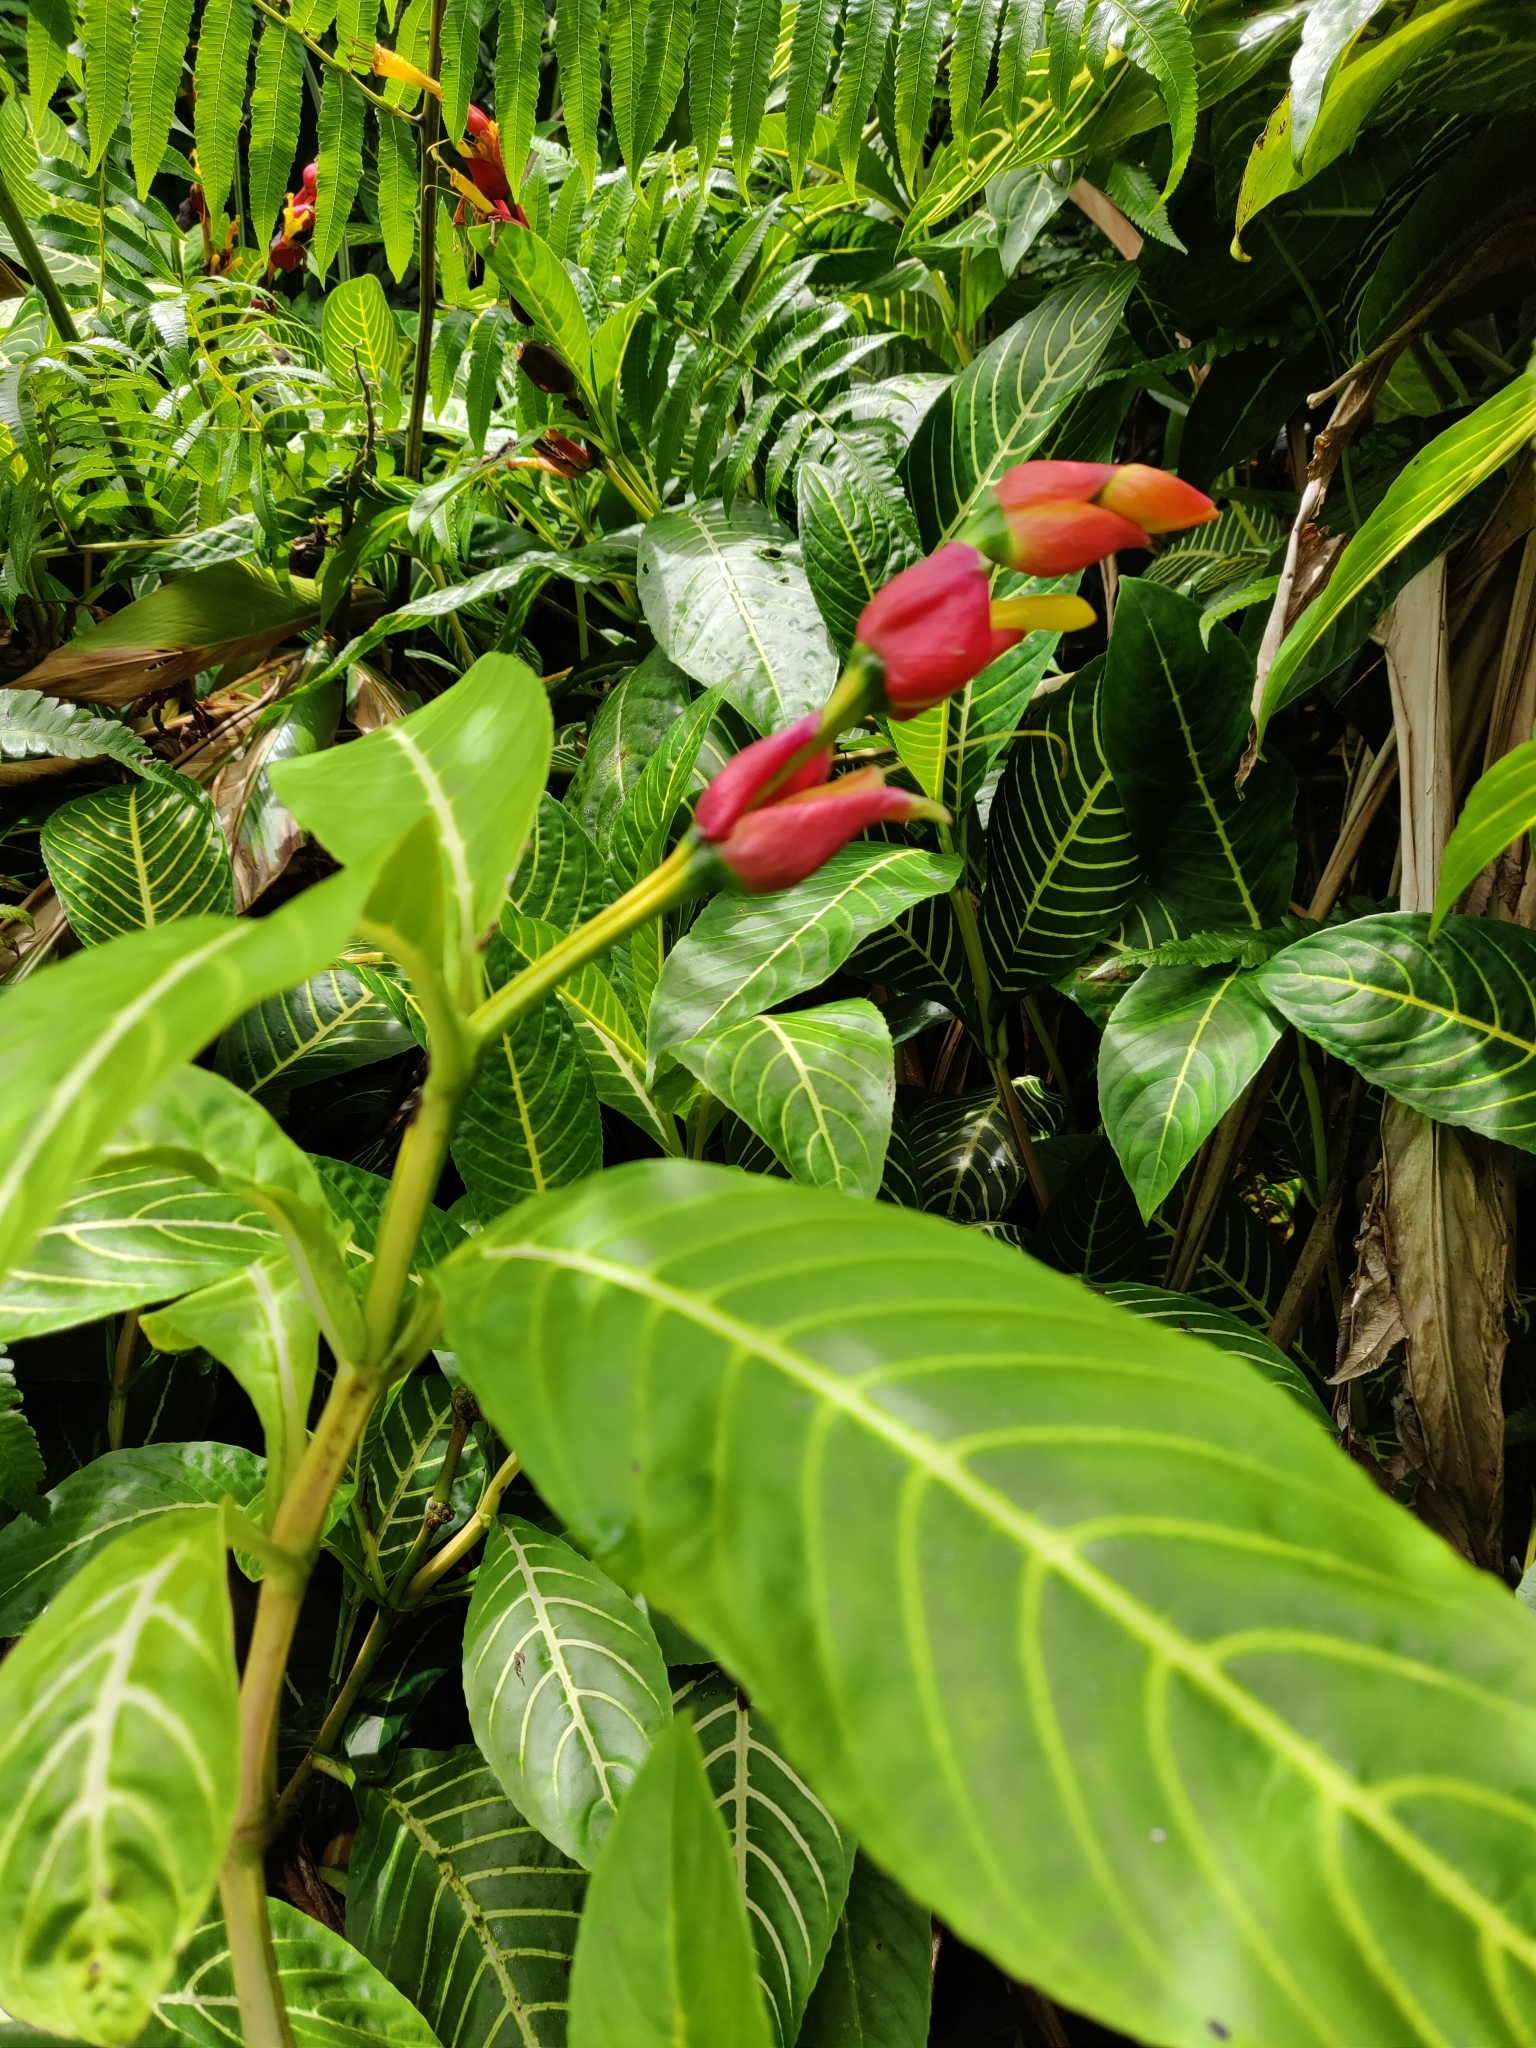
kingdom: Plantae
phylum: Tracheophyta
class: Magnoliopsida
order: Lamiales
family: Acanthaceae
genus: Sanchezia
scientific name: Sanchezia oblonga
